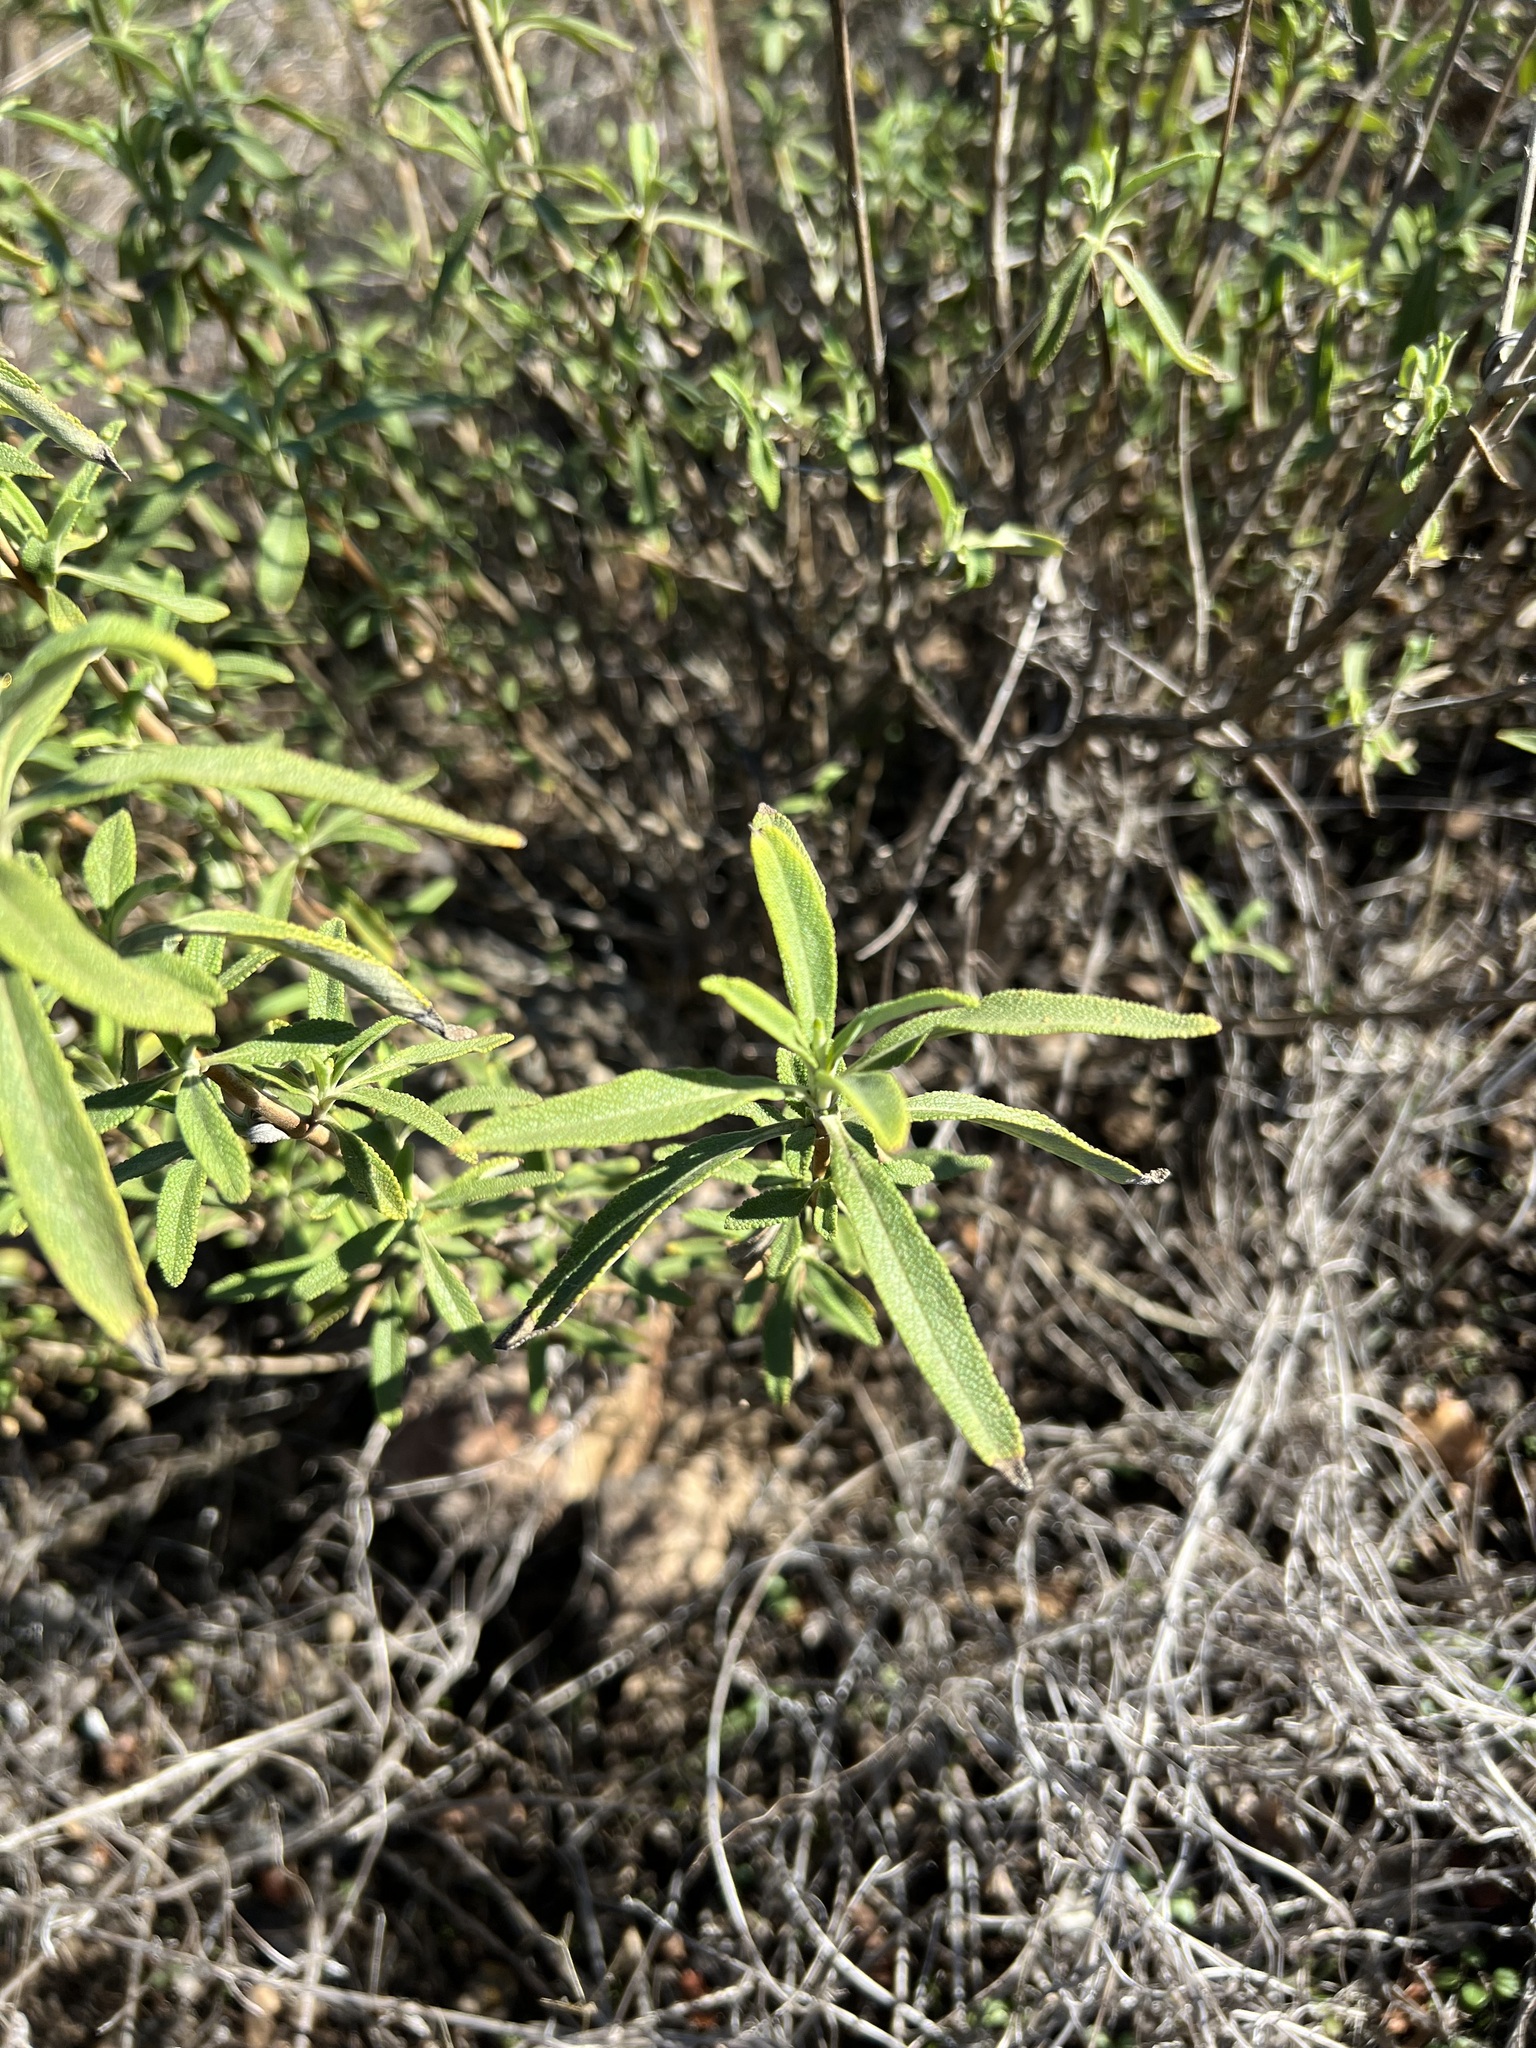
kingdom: Plantae
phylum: Tracheophyta
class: Magnoliopsida
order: Lamiales
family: Lamiaceae
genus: Salvia
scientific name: Salvia mellifera
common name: Black sage
